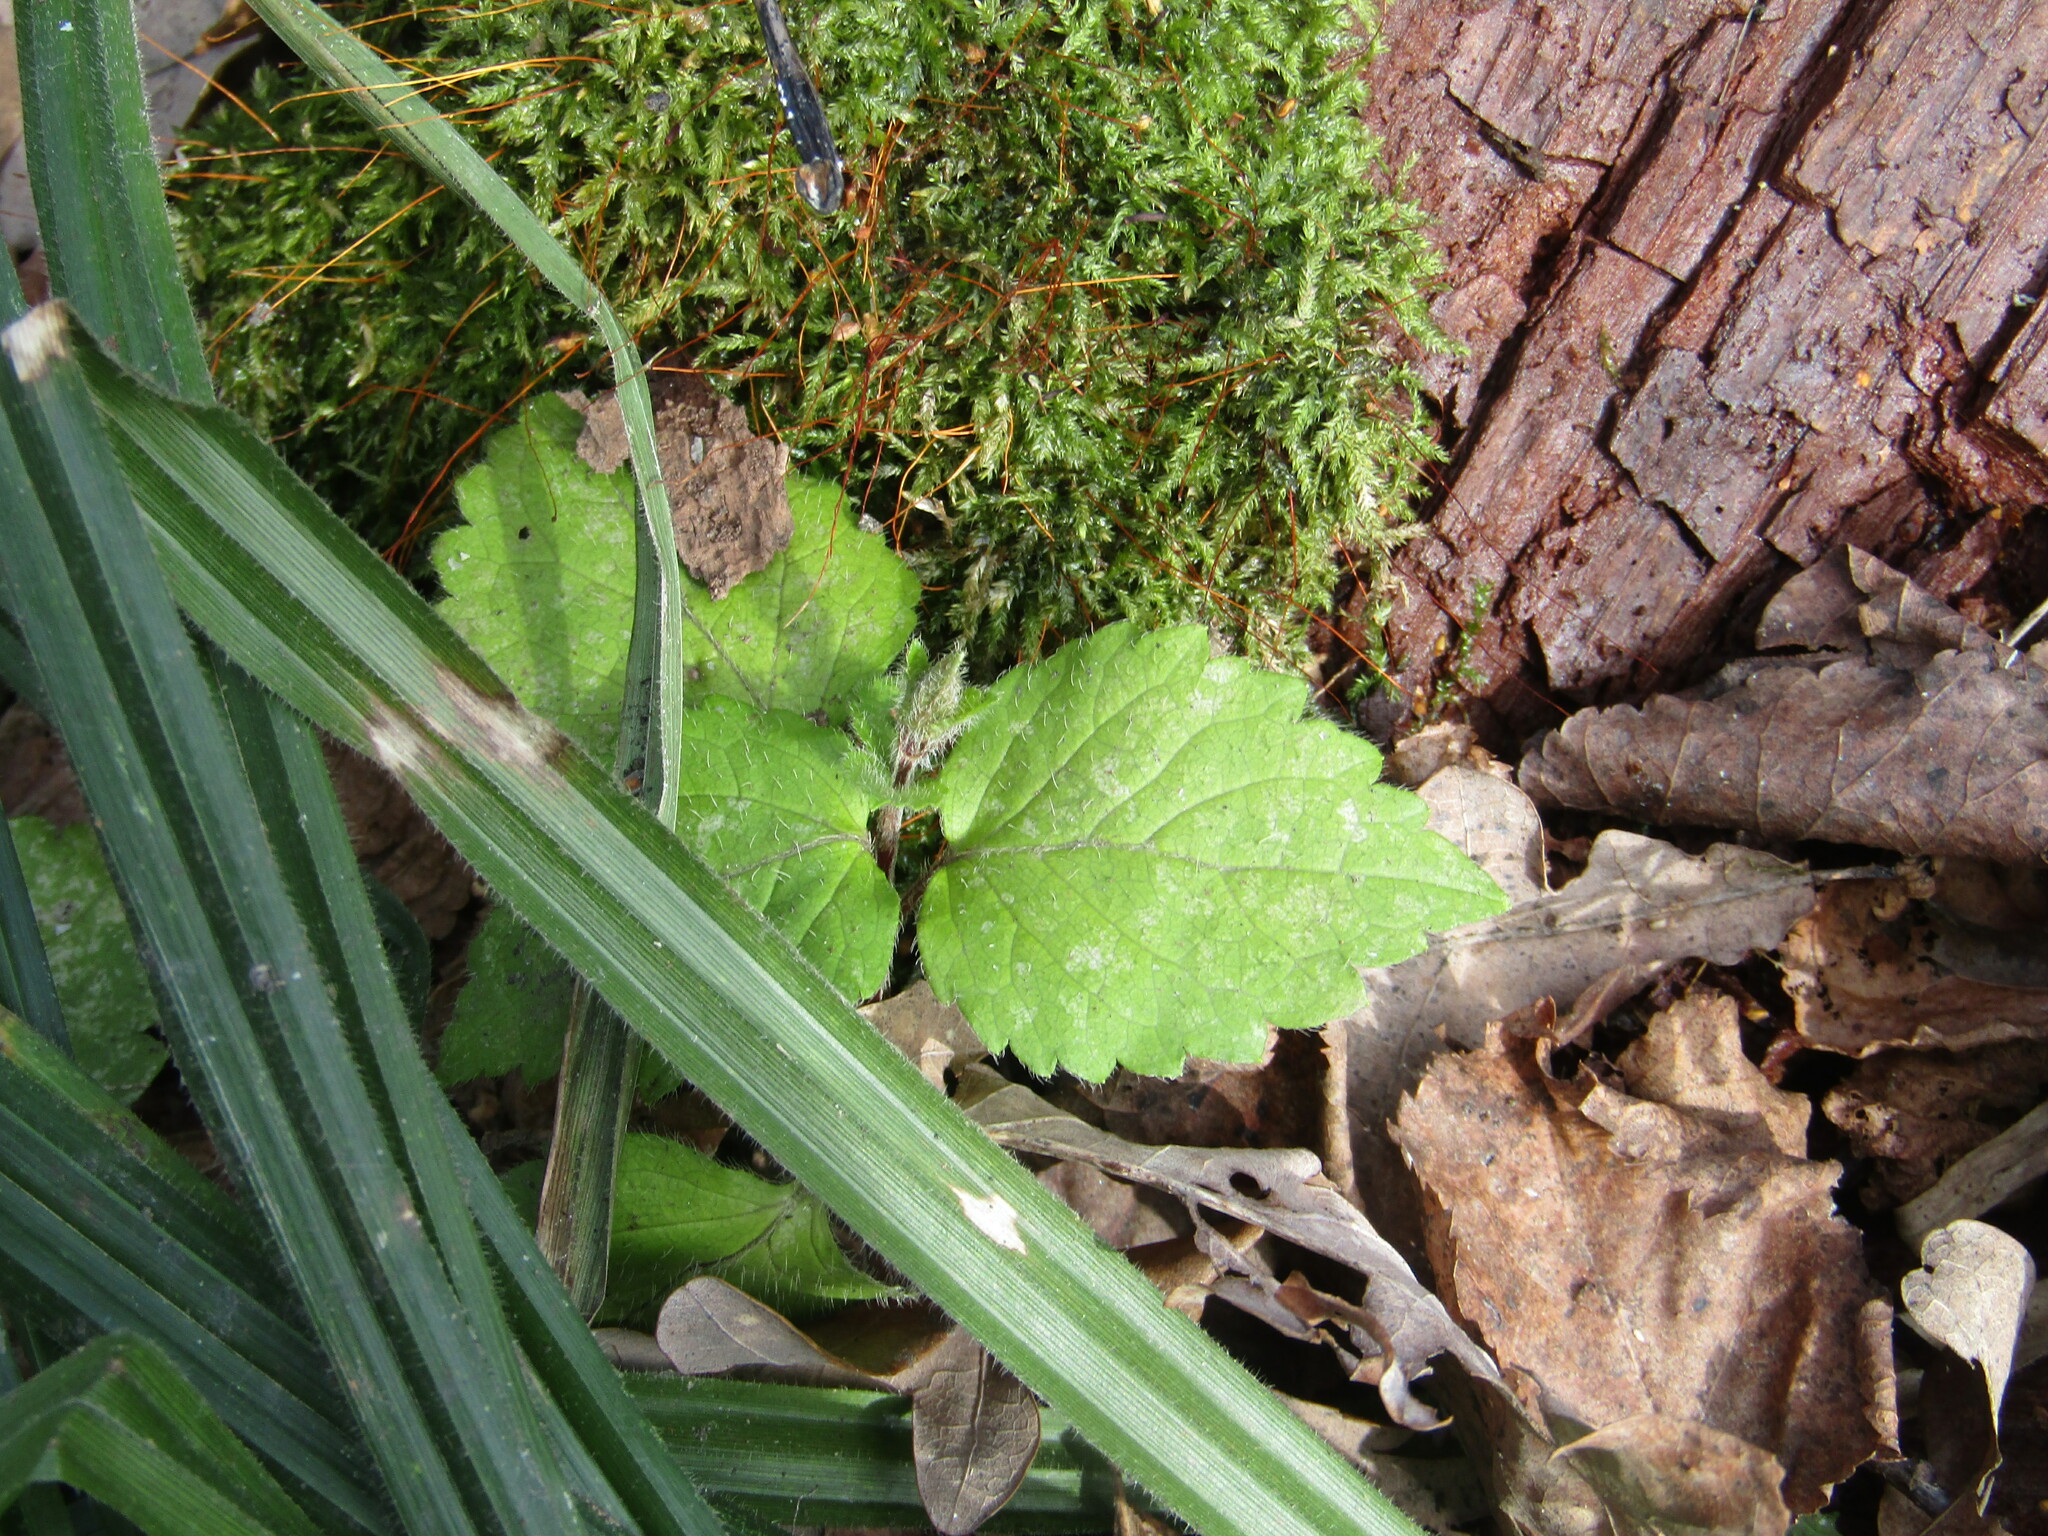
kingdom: Plantae
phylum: Tracheophyta
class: Magnoliopsida
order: Lamiales
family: Lamiaceae
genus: Lamium
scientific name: Lamium galeobdolon
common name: Yellow archangel
